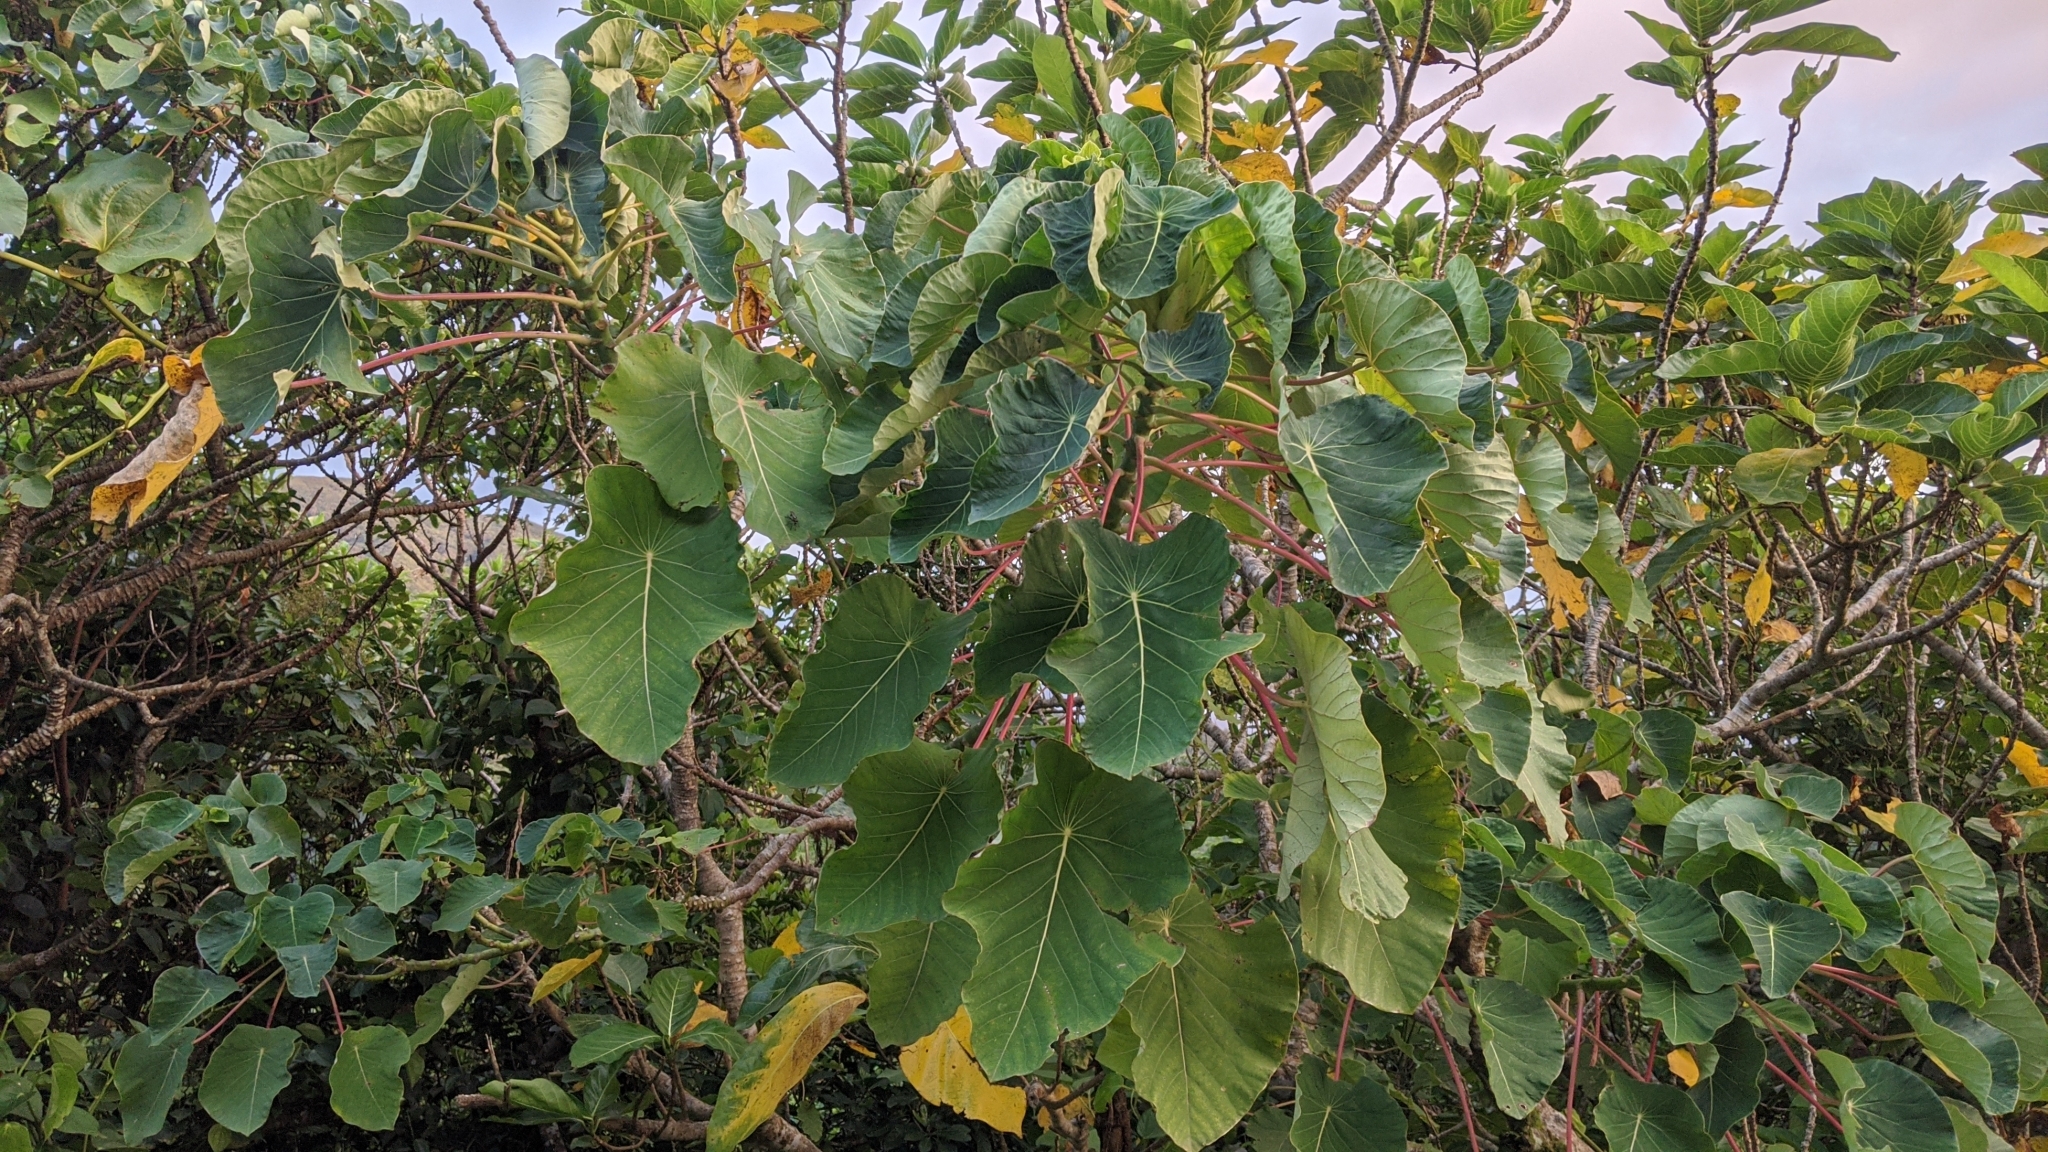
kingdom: Plantae
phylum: Tracheophyta
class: Magnoliopsida
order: Malpighiales
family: Euphorbiaceae
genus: Homalanthus
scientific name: Homalanthus fastuosus
